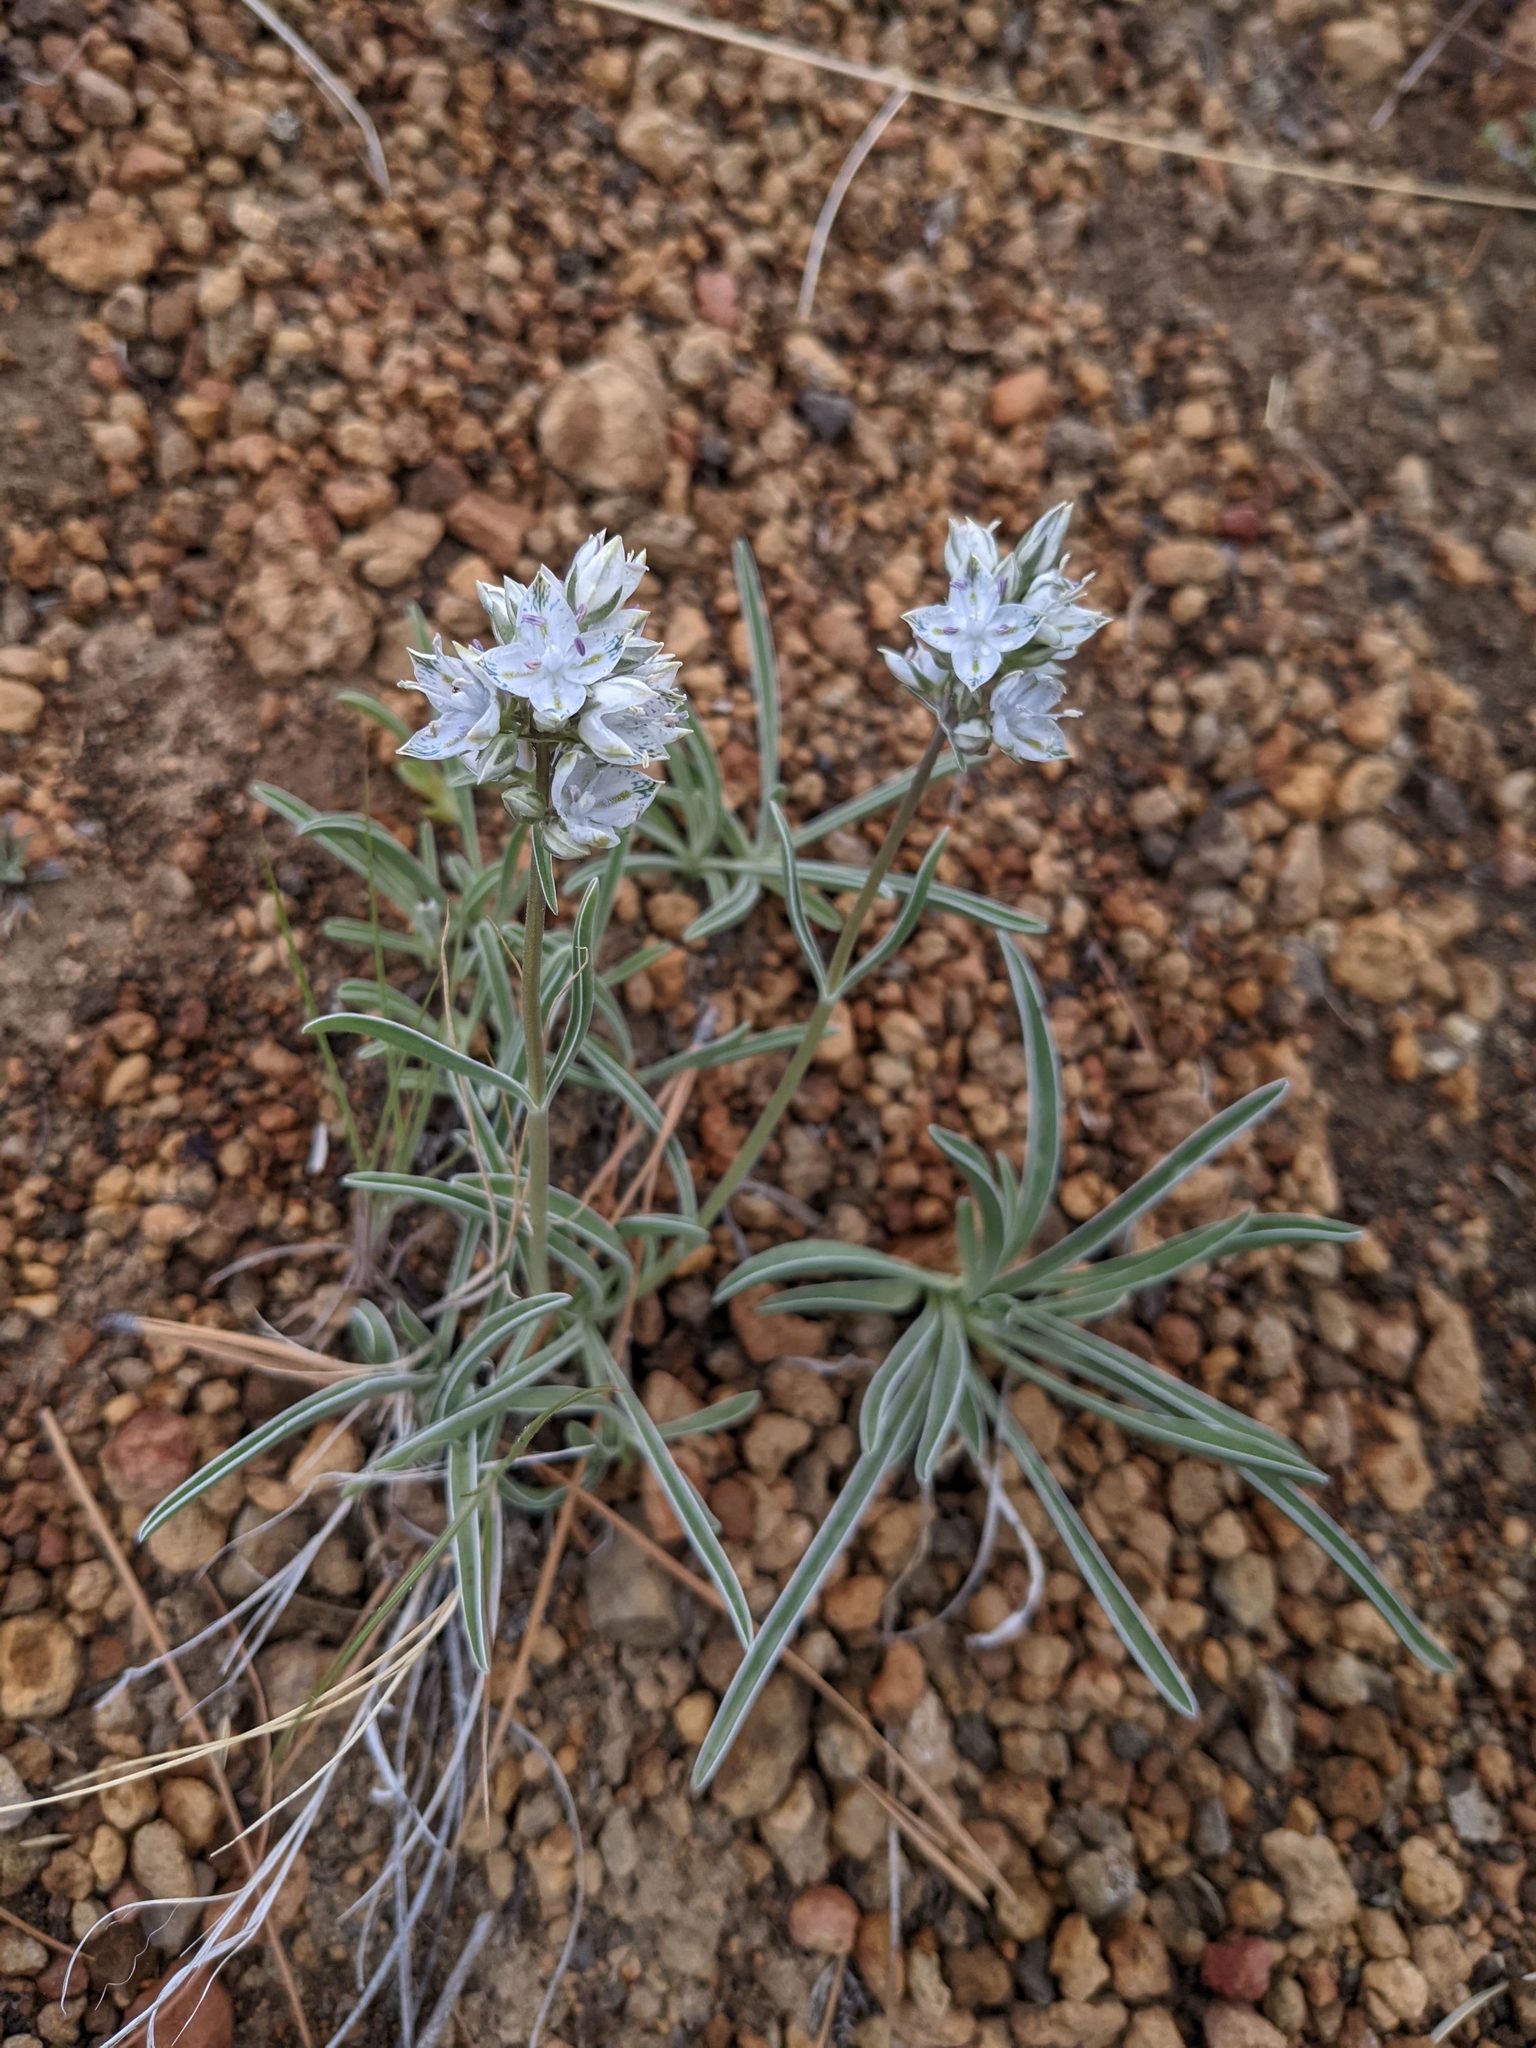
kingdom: Plantae
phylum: Tracheophyta
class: Magnoliopsida
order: Gentianales
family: Gentianaceae
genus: Frasera
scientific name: Frasera albicaulis
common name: Cusick's frasera
